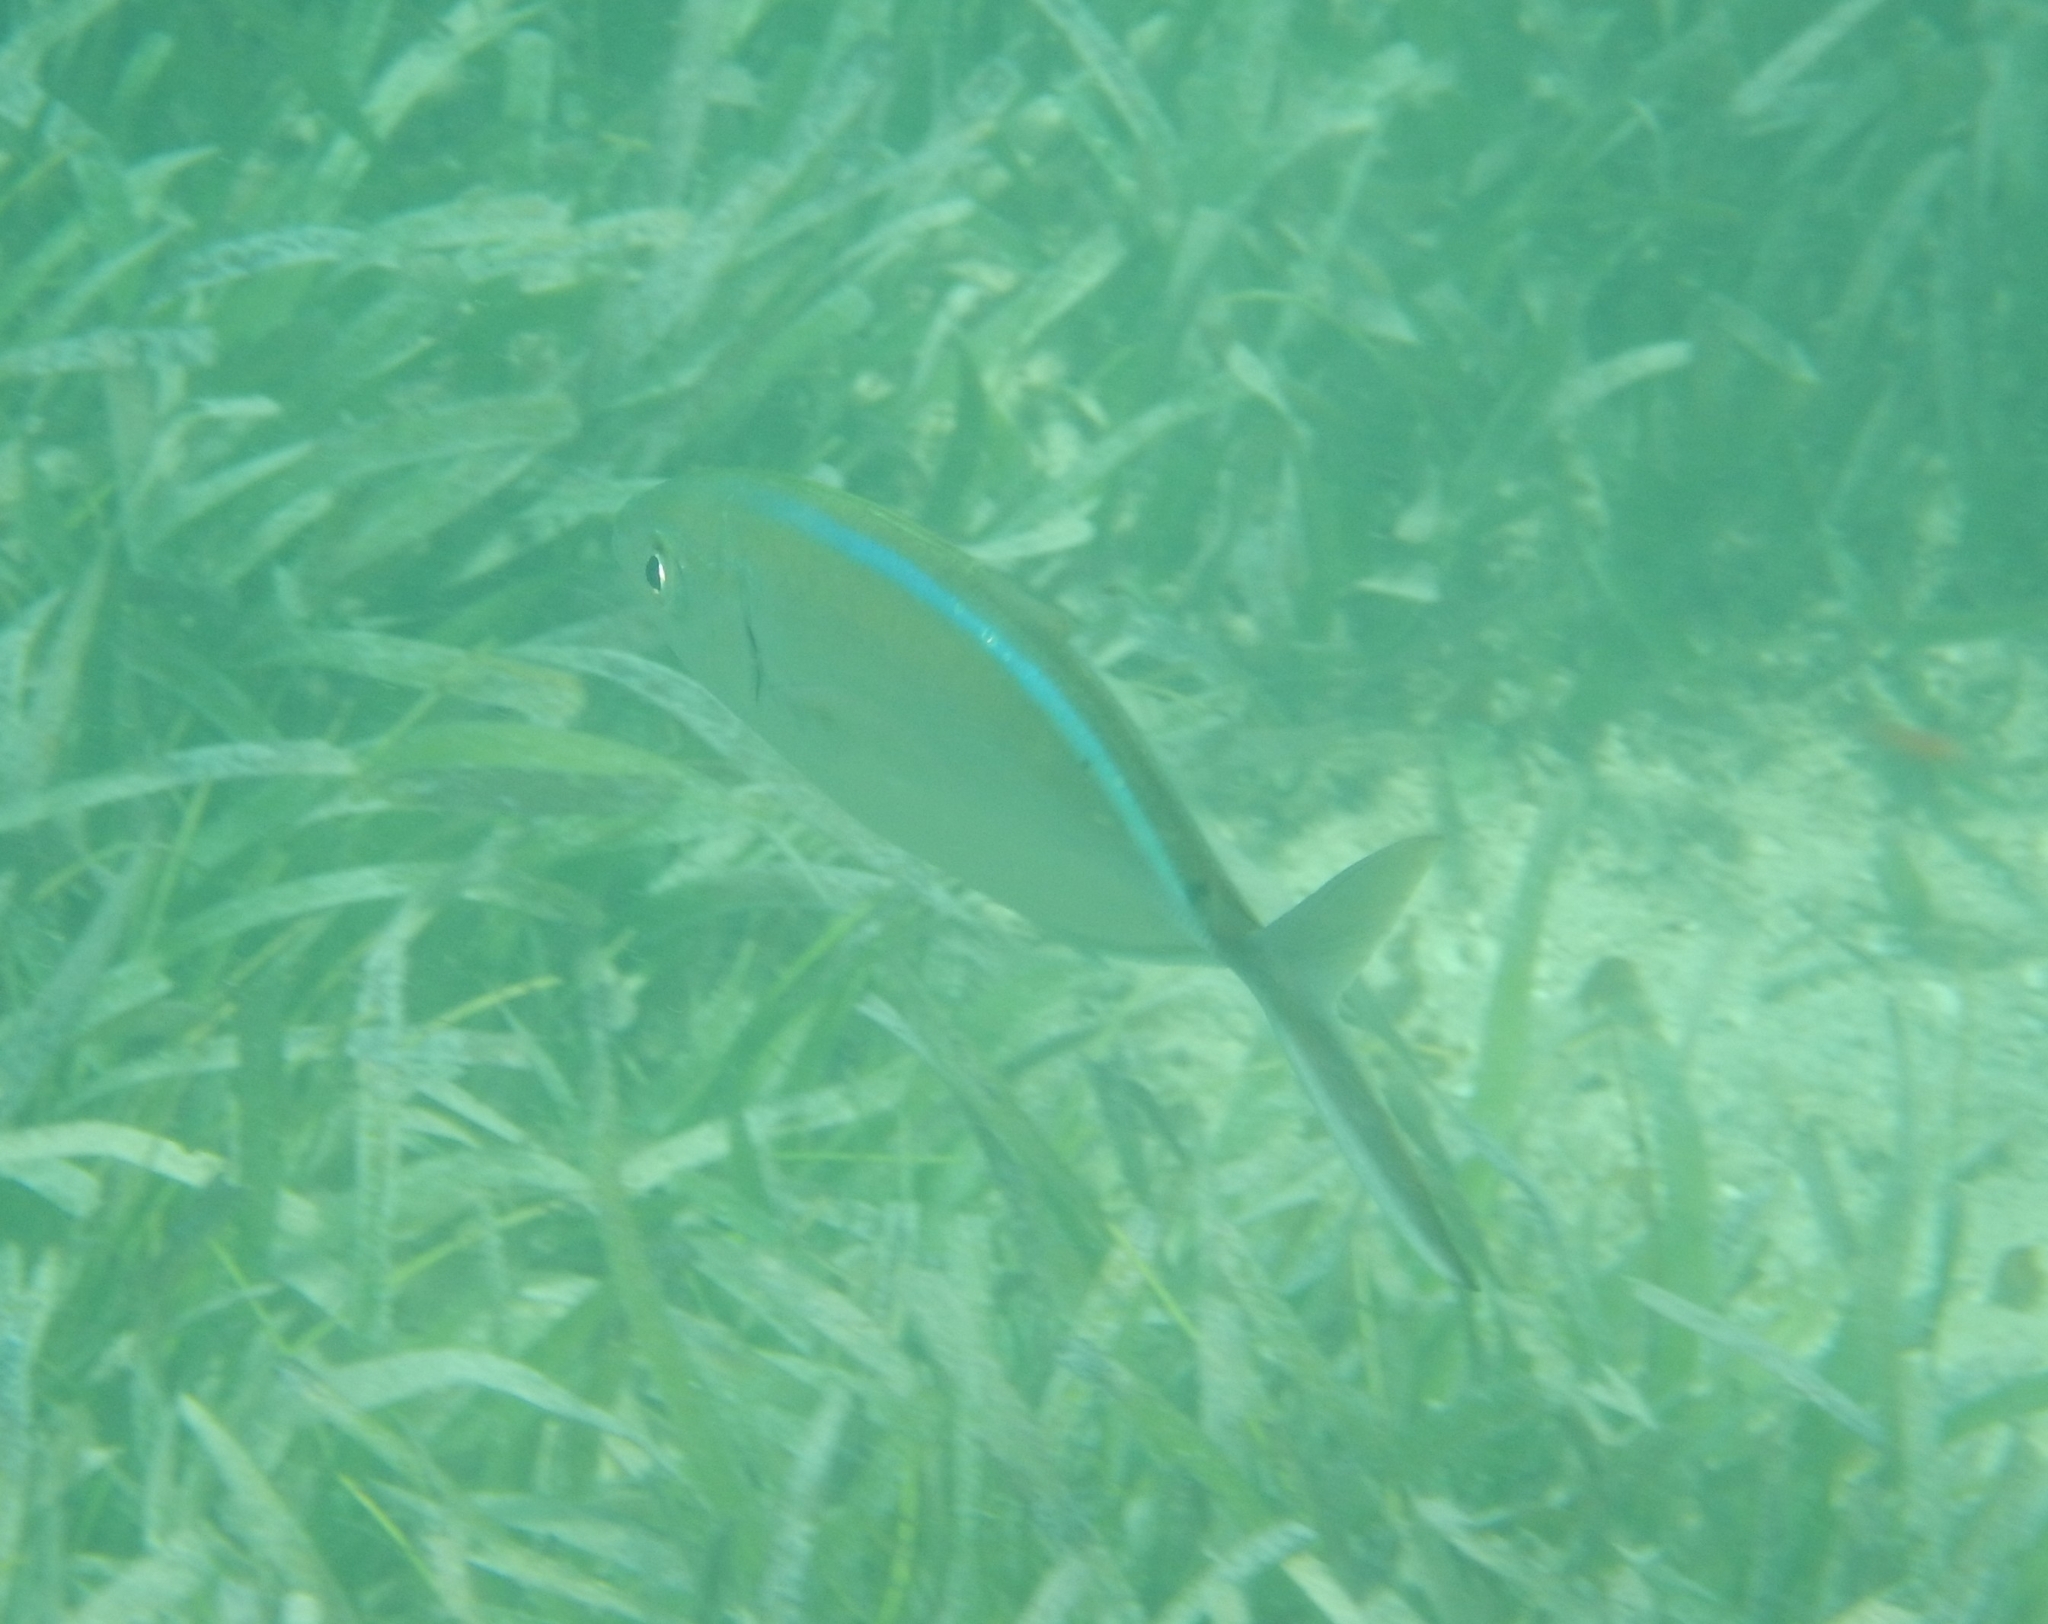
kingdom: Animalia
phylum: Chordata
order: Perciformes
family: Carangidae
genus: Caranx
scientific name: Caranx ruber
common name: Bar jack
